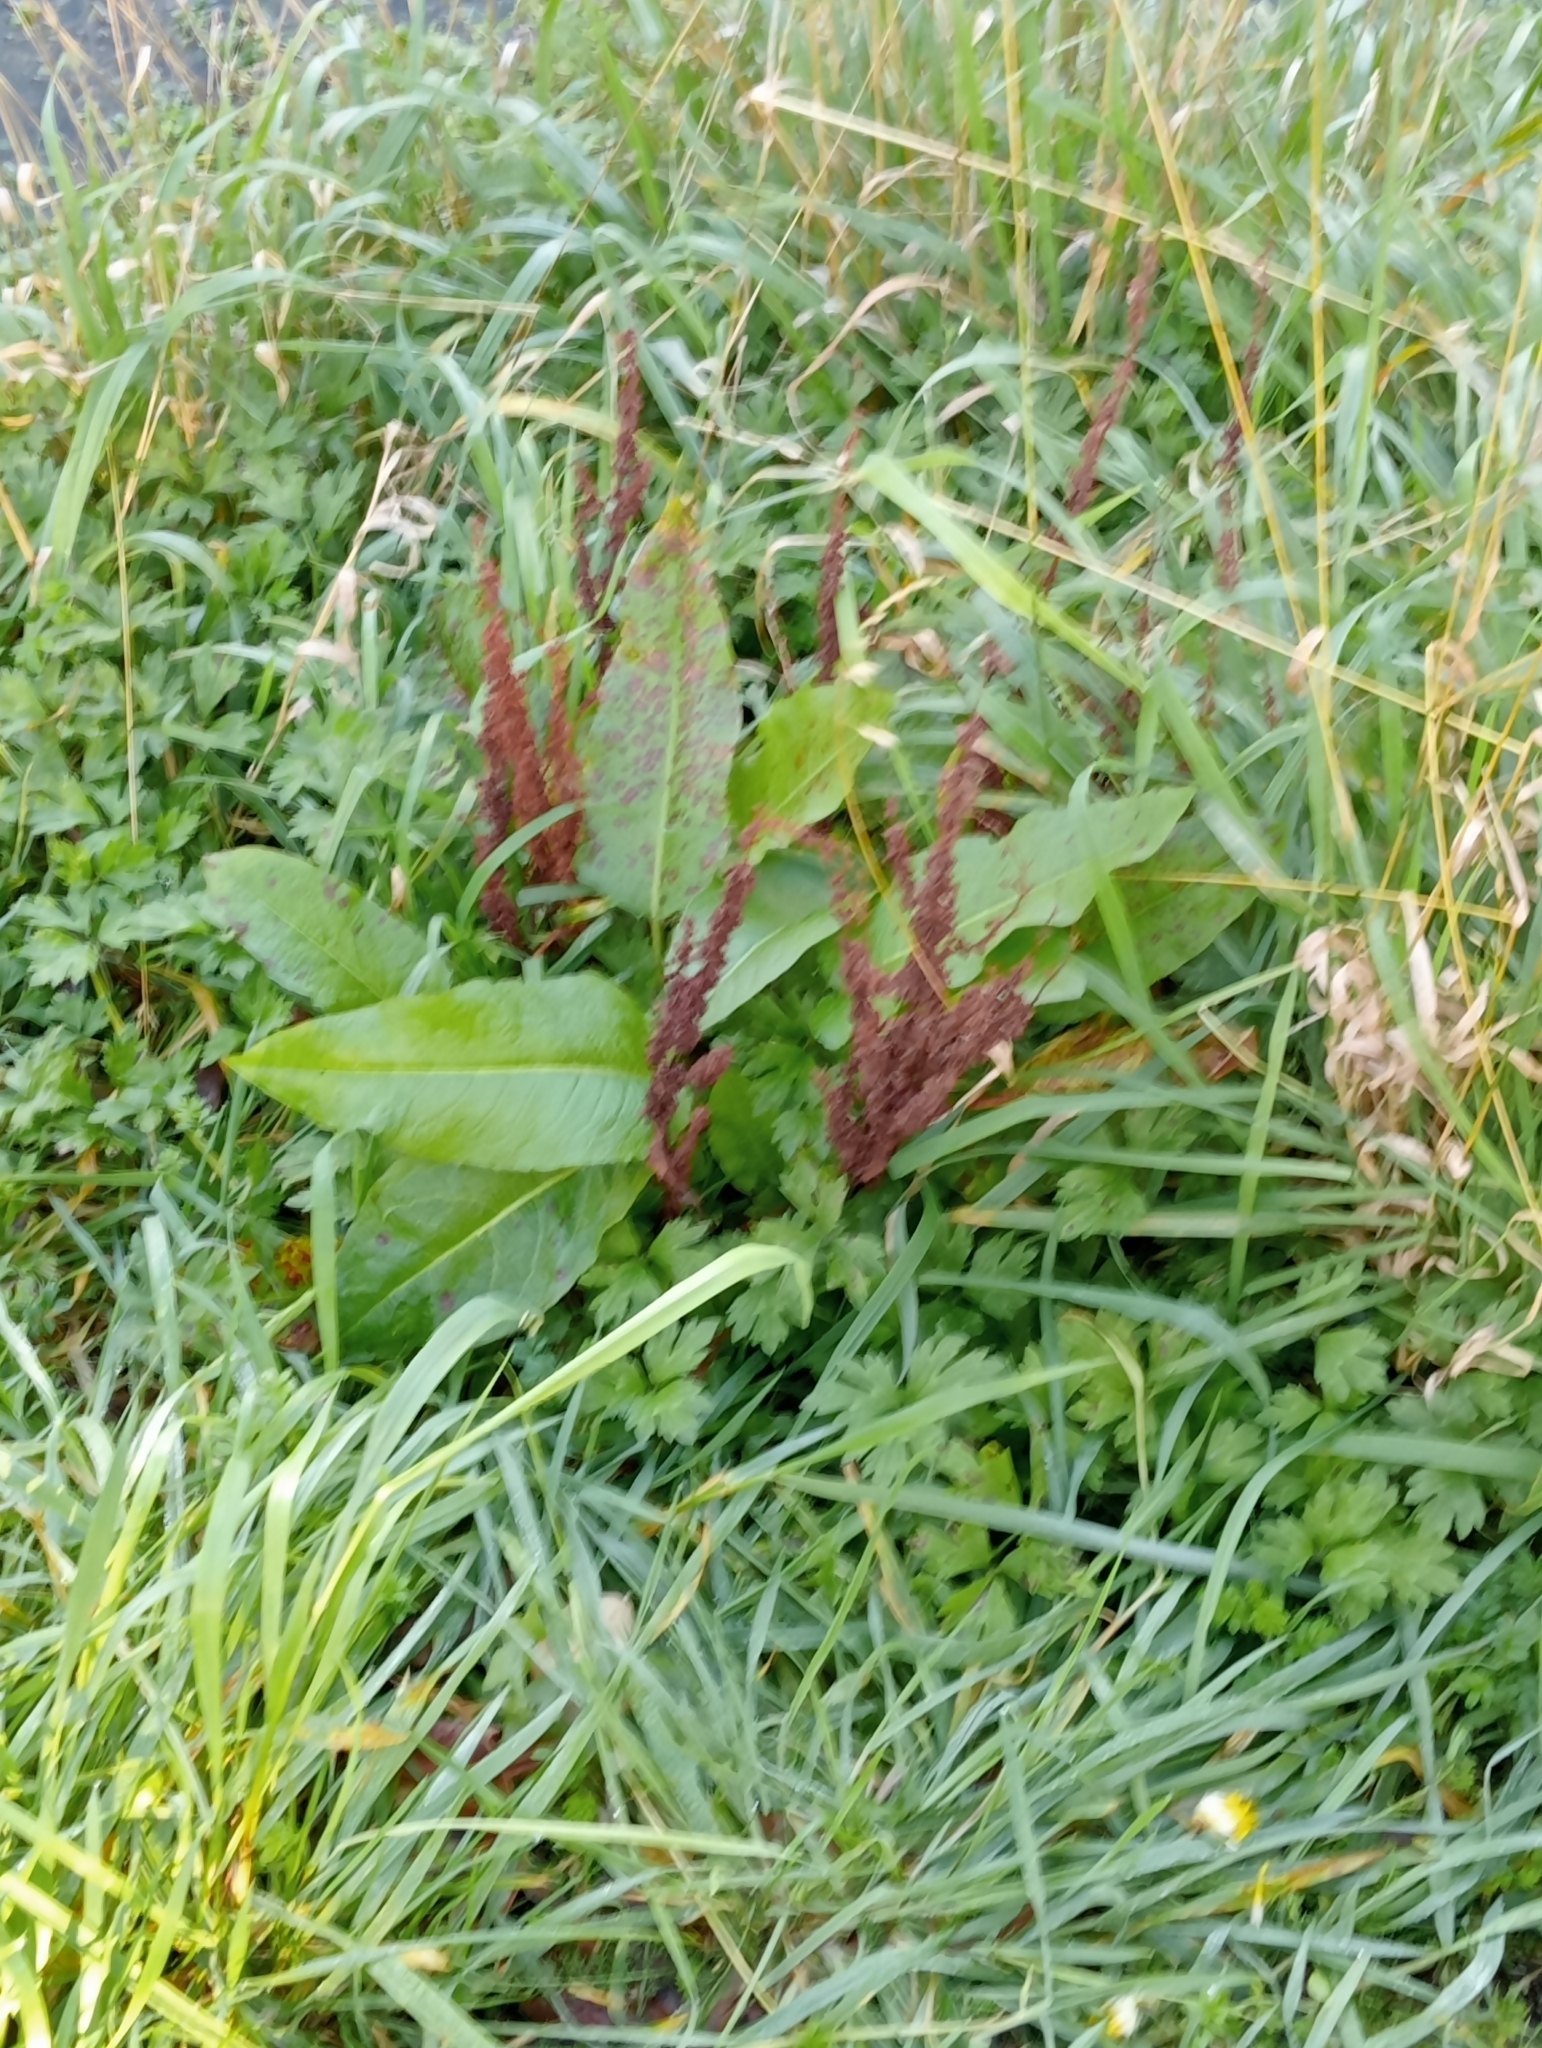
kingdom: Plantae
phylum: Tracheophyta
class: Magnoliopsida
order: Caryophyllales
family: Polygonaceae
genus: Rumex
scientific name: Rumex obtusifolius
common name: Bitter dock
